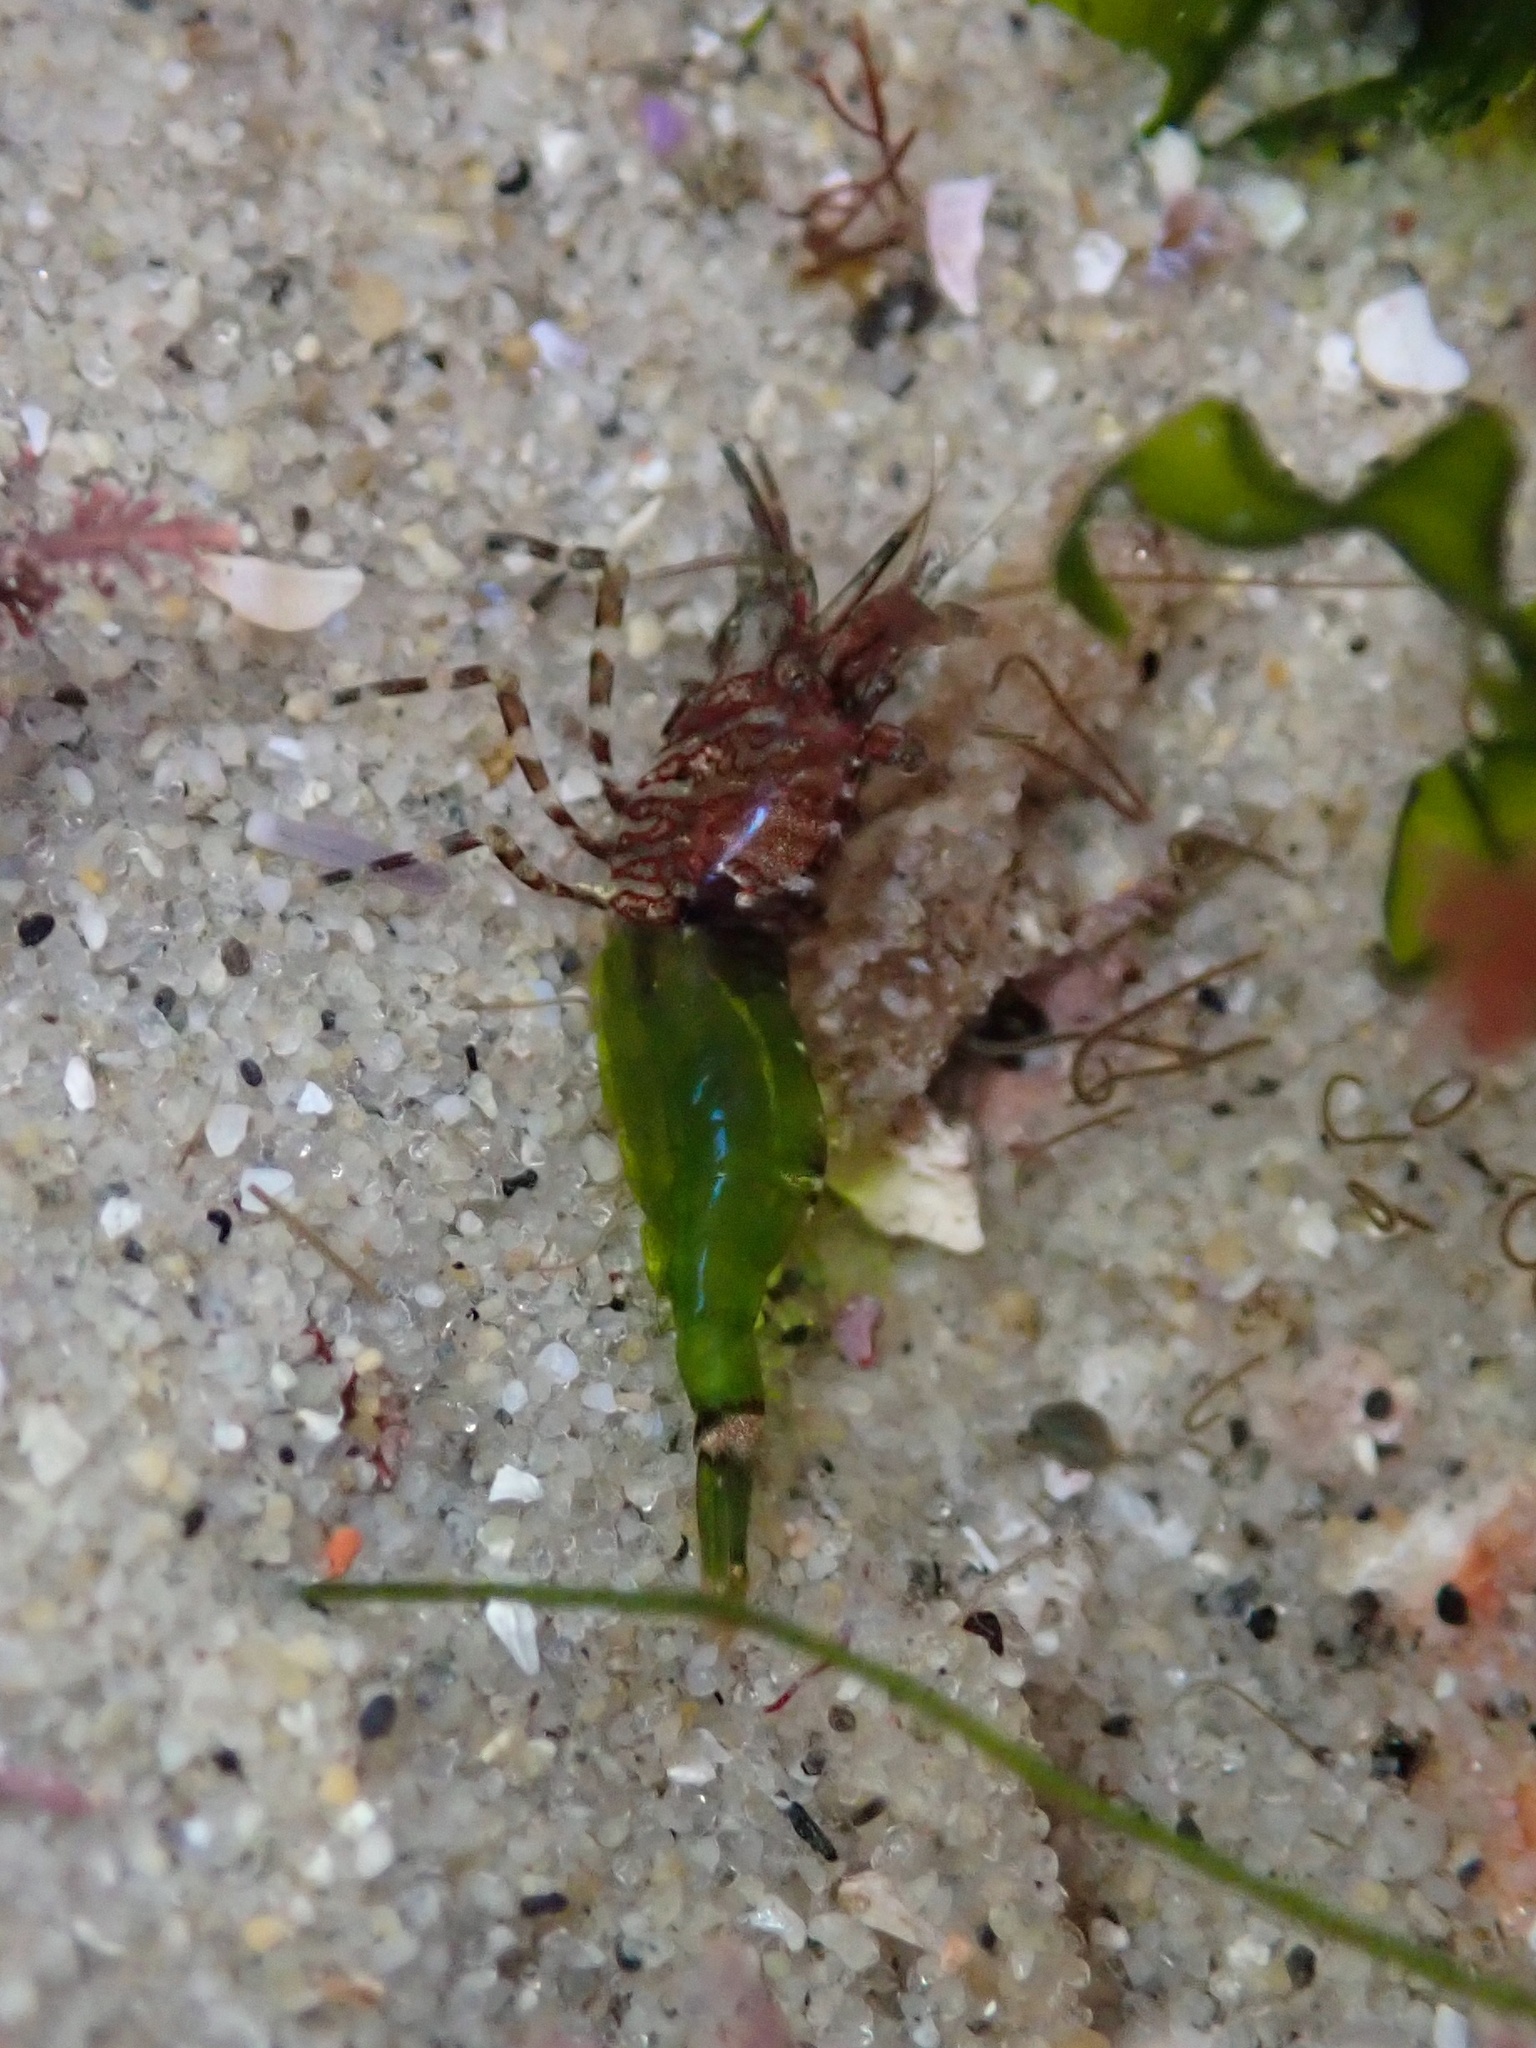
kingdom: Animalia
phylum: Arthropoda
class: Malacostraca
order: Decapoda
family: Thoridae
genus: Heptacarpus
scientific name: Heptacarpus sitchensis
